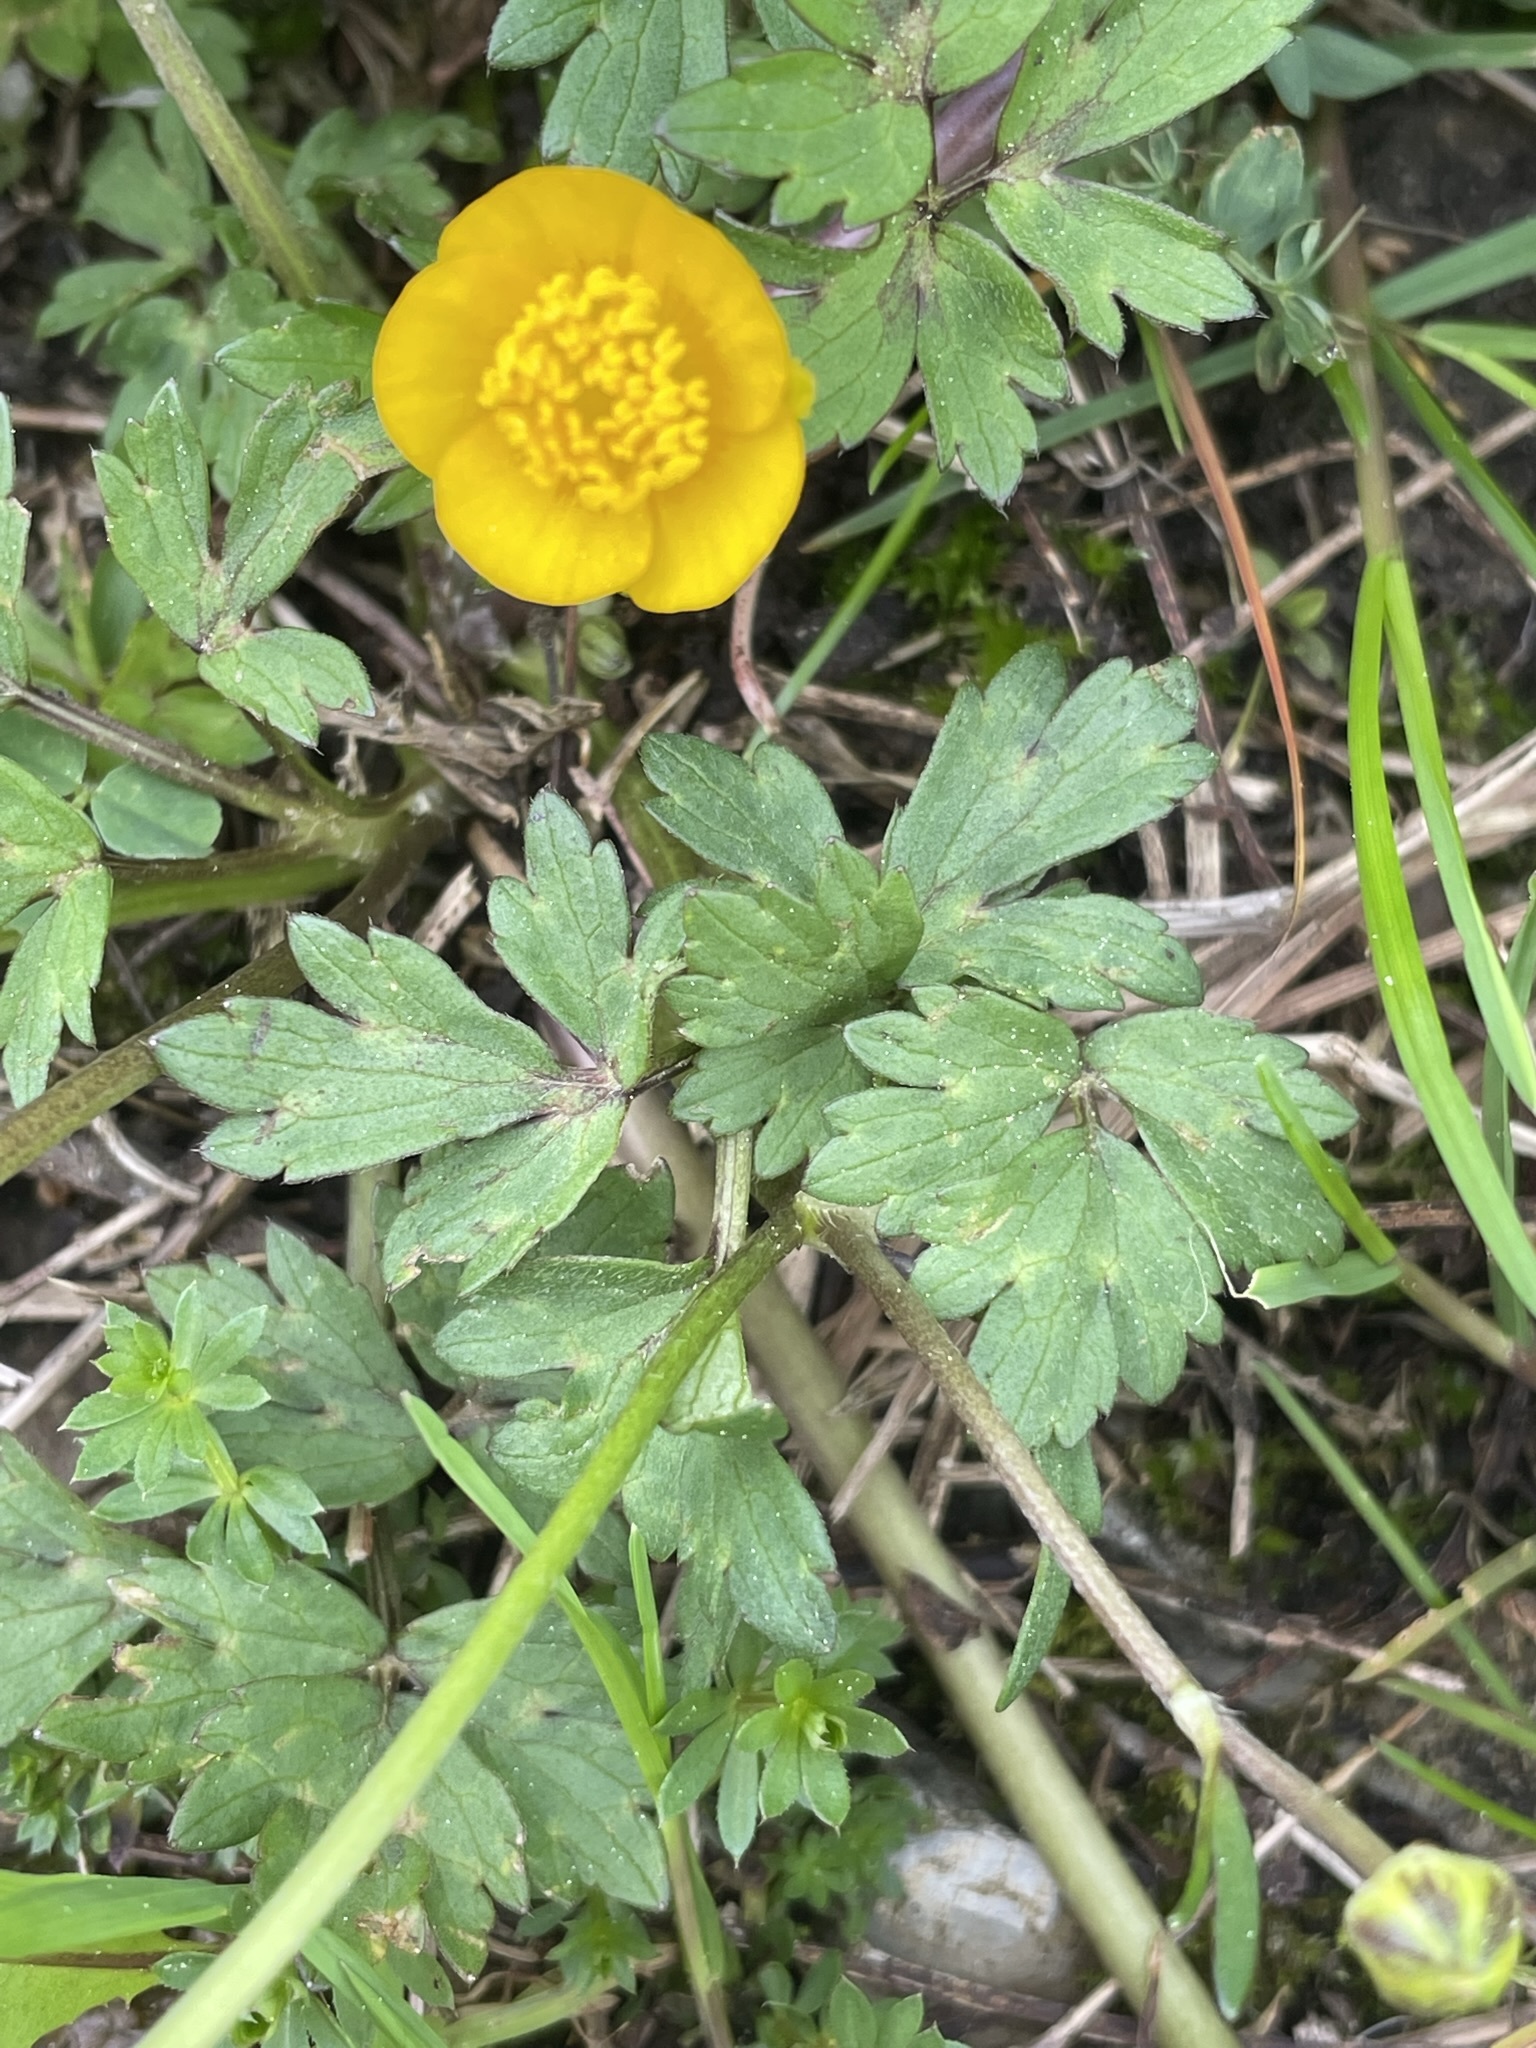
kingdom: Plantae
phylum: Tracheophyta
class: Magnoliopsida
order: Ranunculales
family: Ranunculaceae
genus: Ranunculus
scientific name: Ranunculus repens
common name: Creeping buttercup
